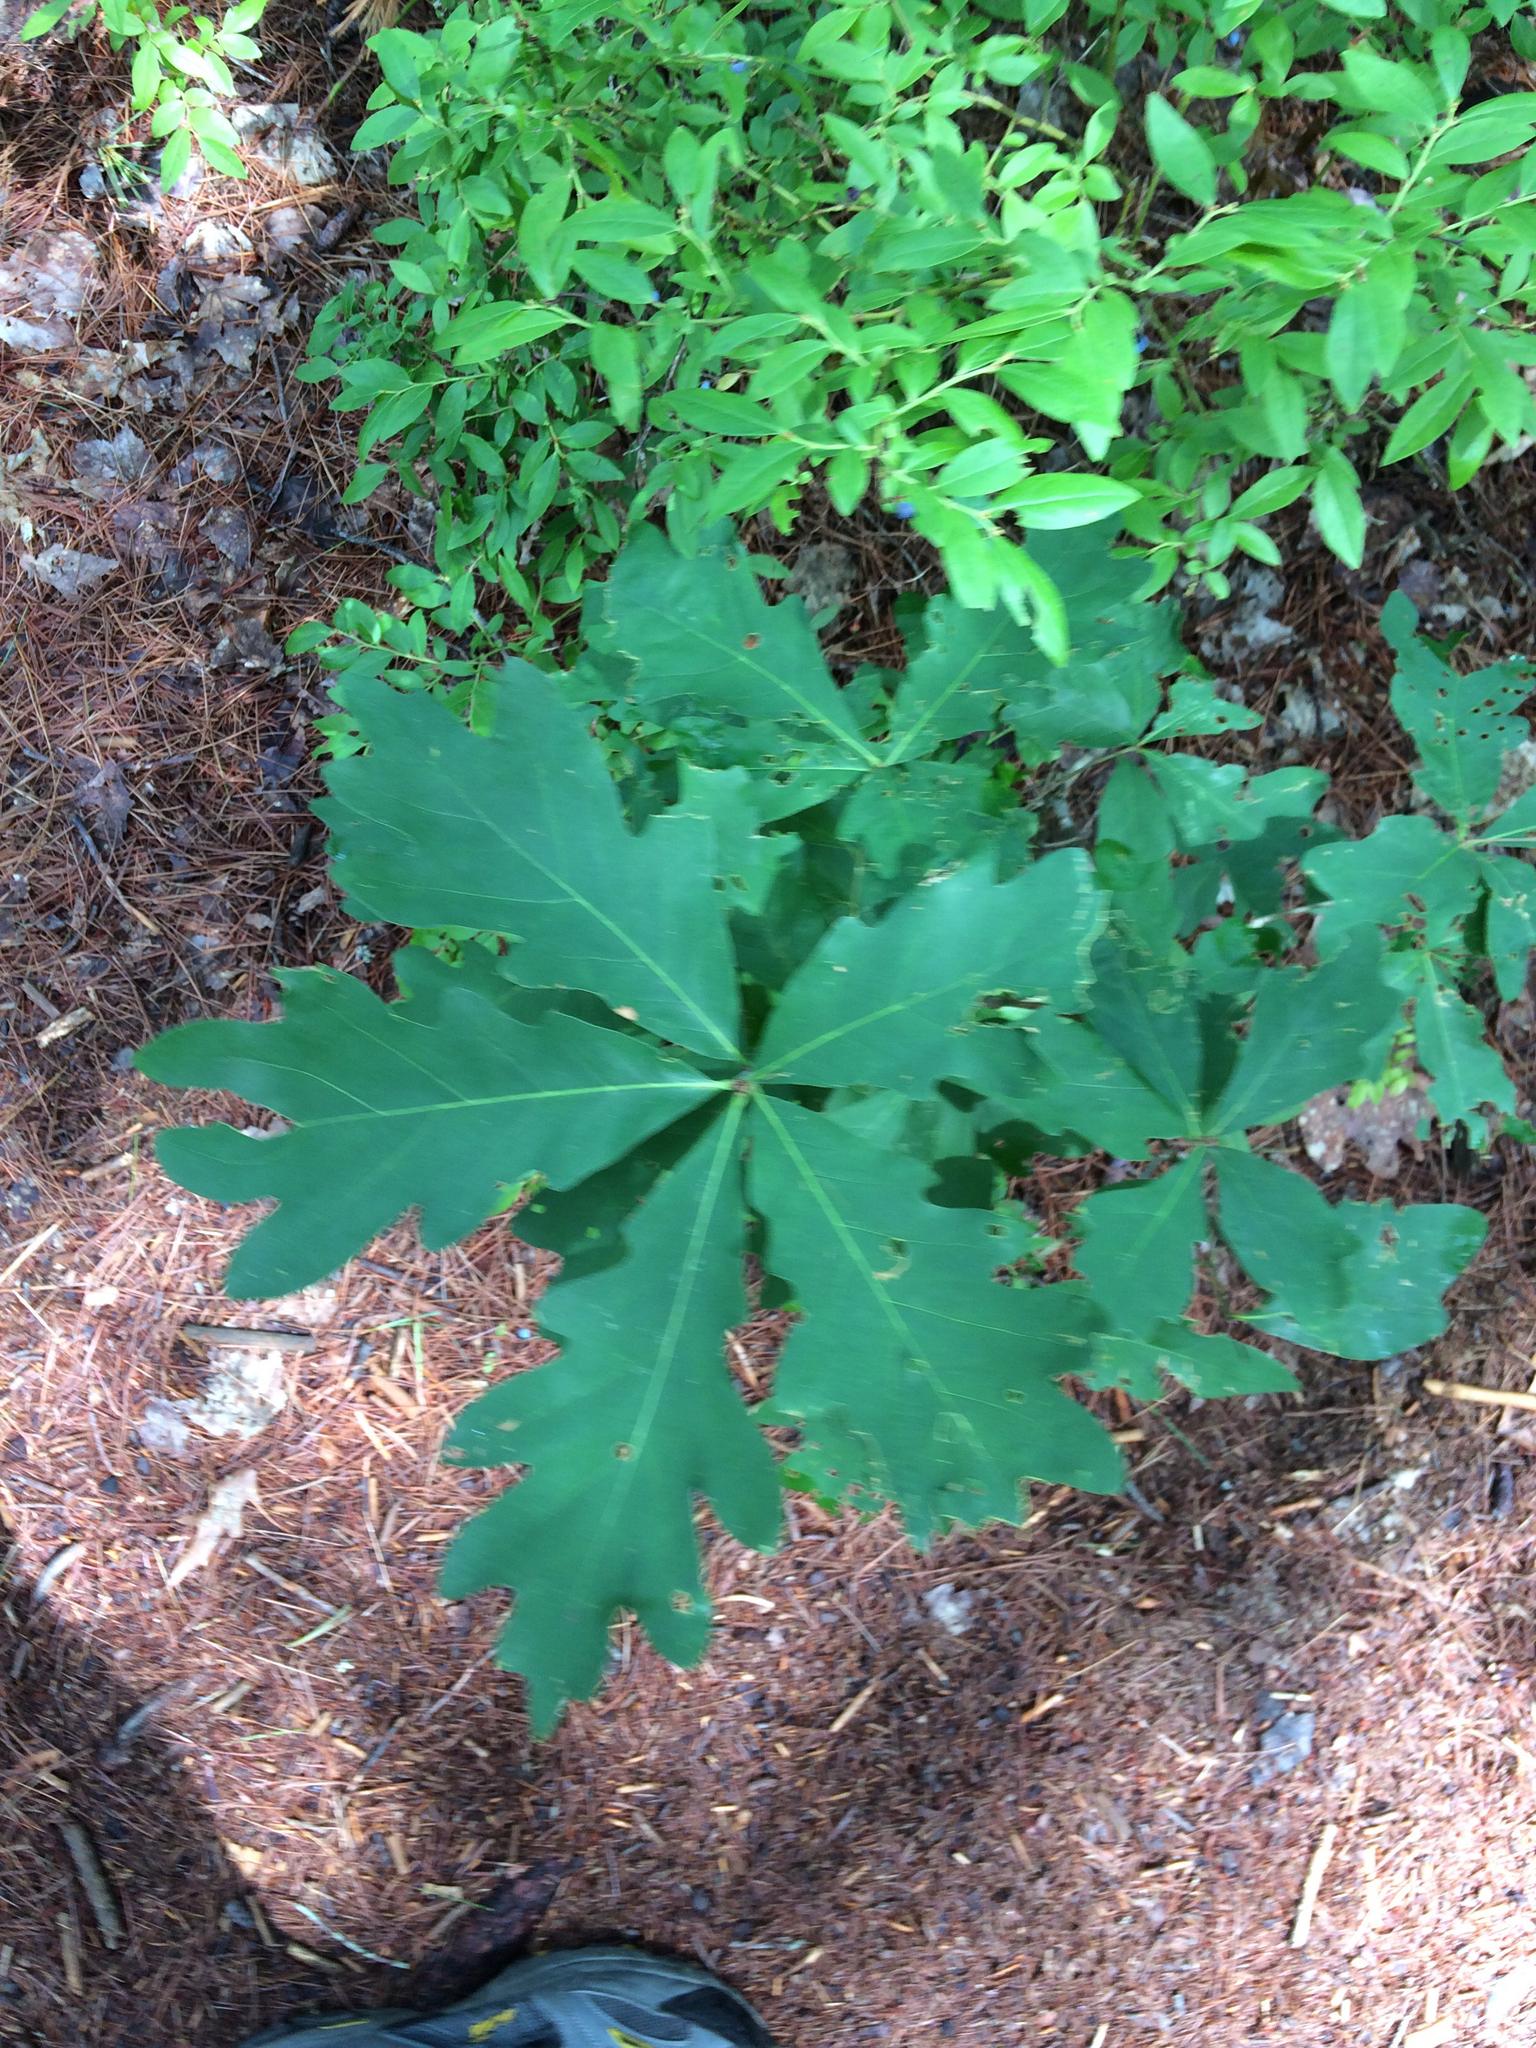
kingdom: Plantae
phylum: Tracheophyta
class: Magnoliopsida
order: Fagales
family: Fagaceae
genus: Quercus
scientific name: Quercus alba
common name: White oak
